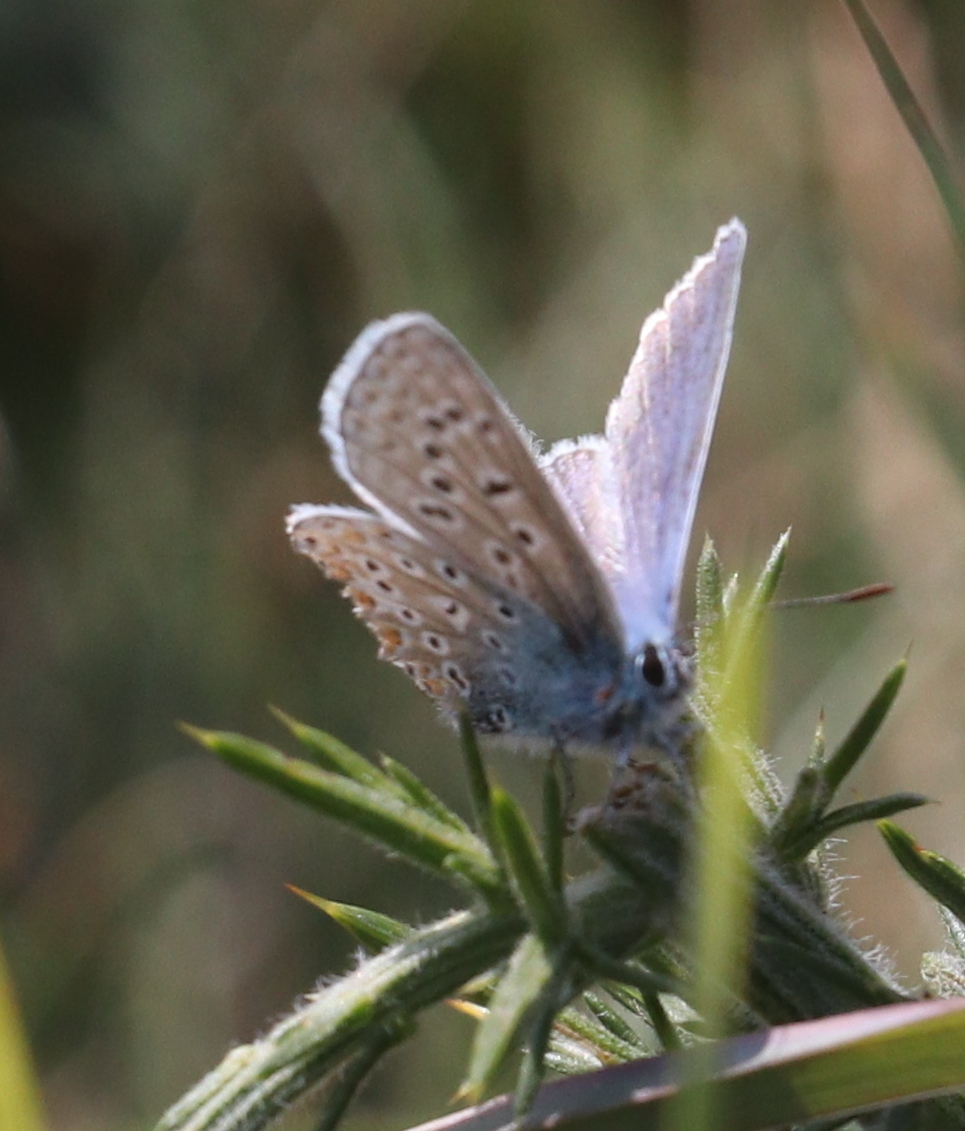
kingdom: Animalia
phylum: Arthropoda
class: Insecta
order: Lepidoptera
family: Lycaenidae
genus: Polyommatus
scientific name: Polyommatus icarus
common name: Common blue
